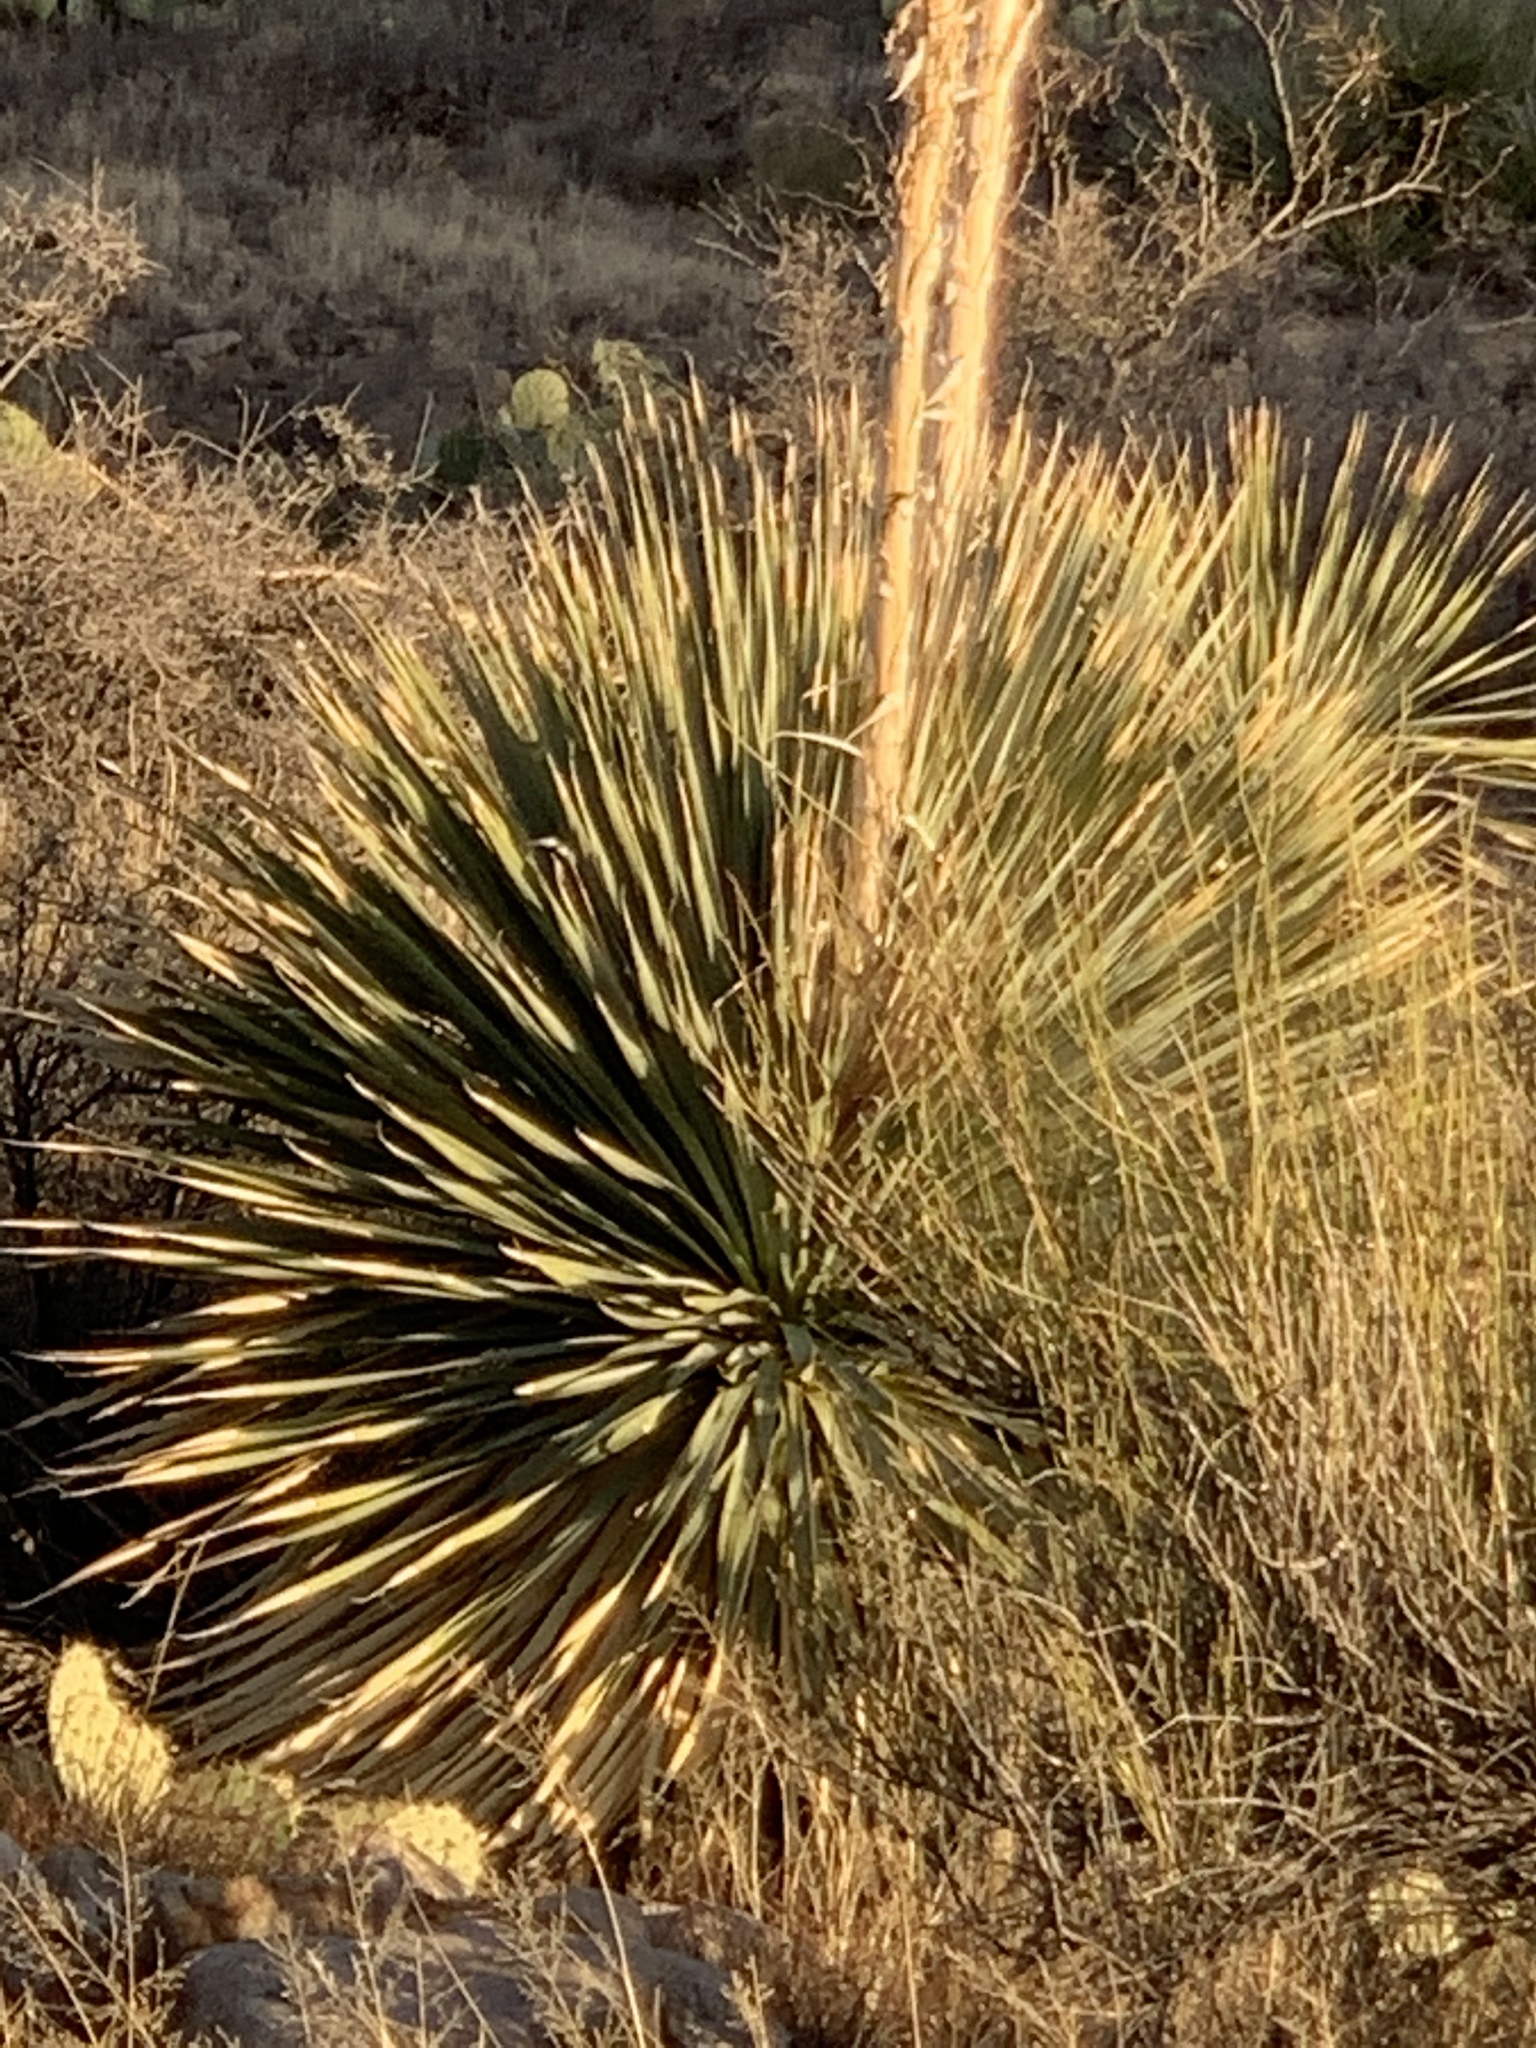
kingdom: Plantae
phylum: Tracheophyta
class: Liliopsida
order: Asparagales
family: Asparagaceae
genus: Dasylirion
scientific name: Dasylirion wheeleri
